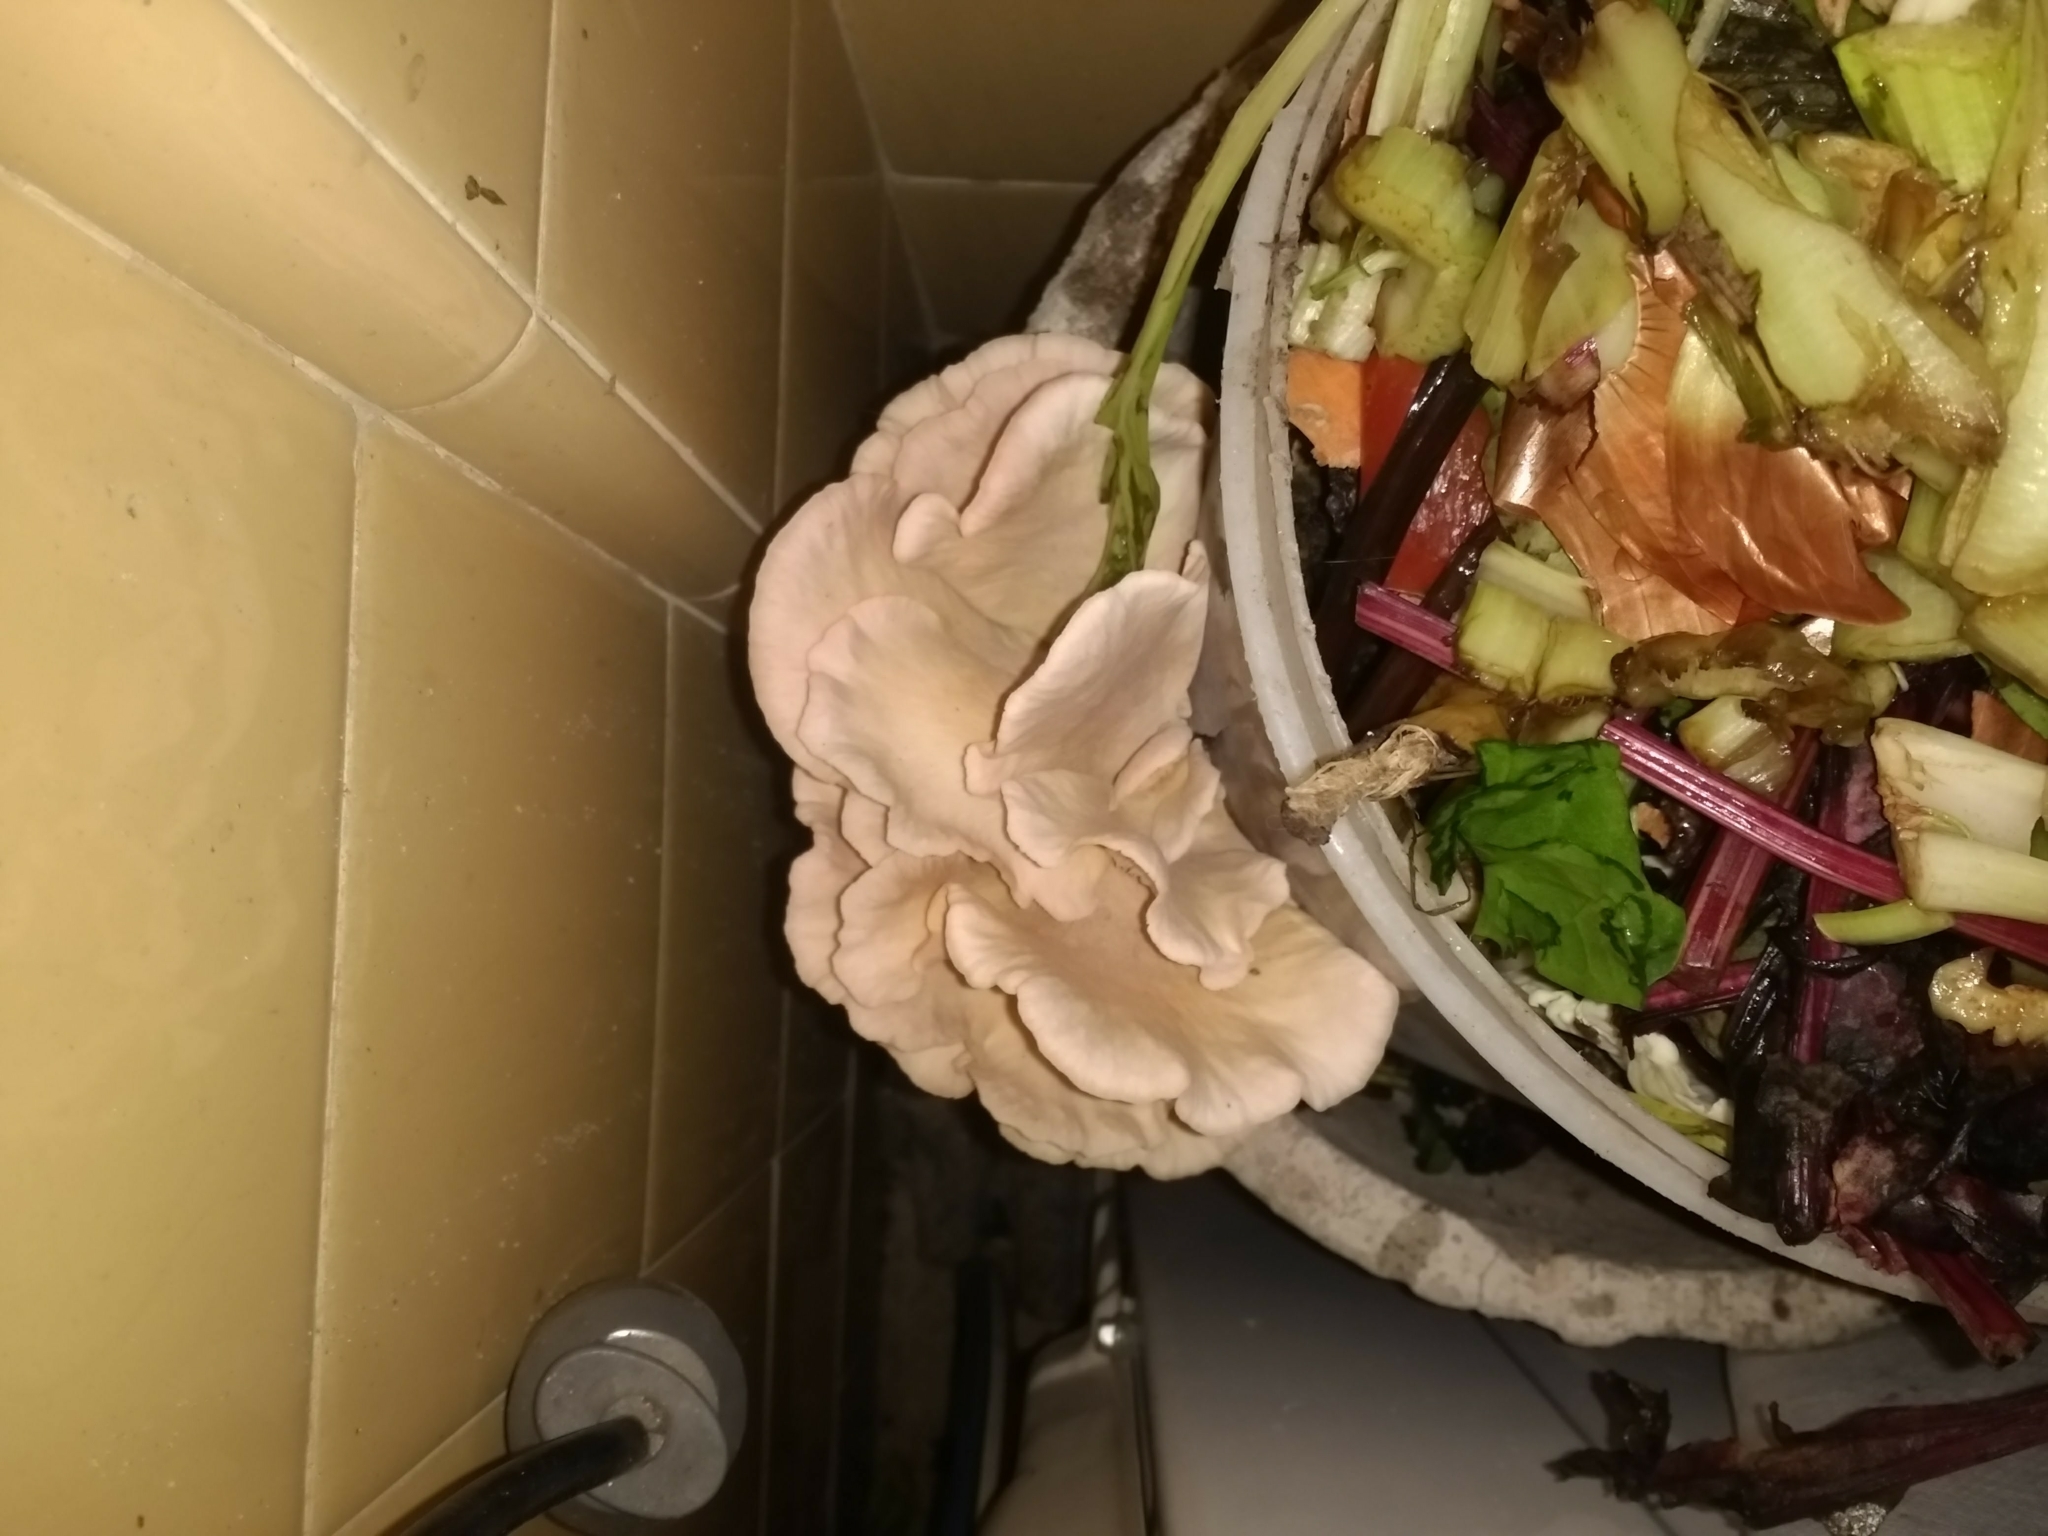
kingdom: Fungi
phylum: Basidiomycota
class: Agaricomycetes
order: Agaricales
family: Pleurotaceae
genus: Pleurotus
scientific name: Pleurotus ostreatus
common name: Oyster mushroom
